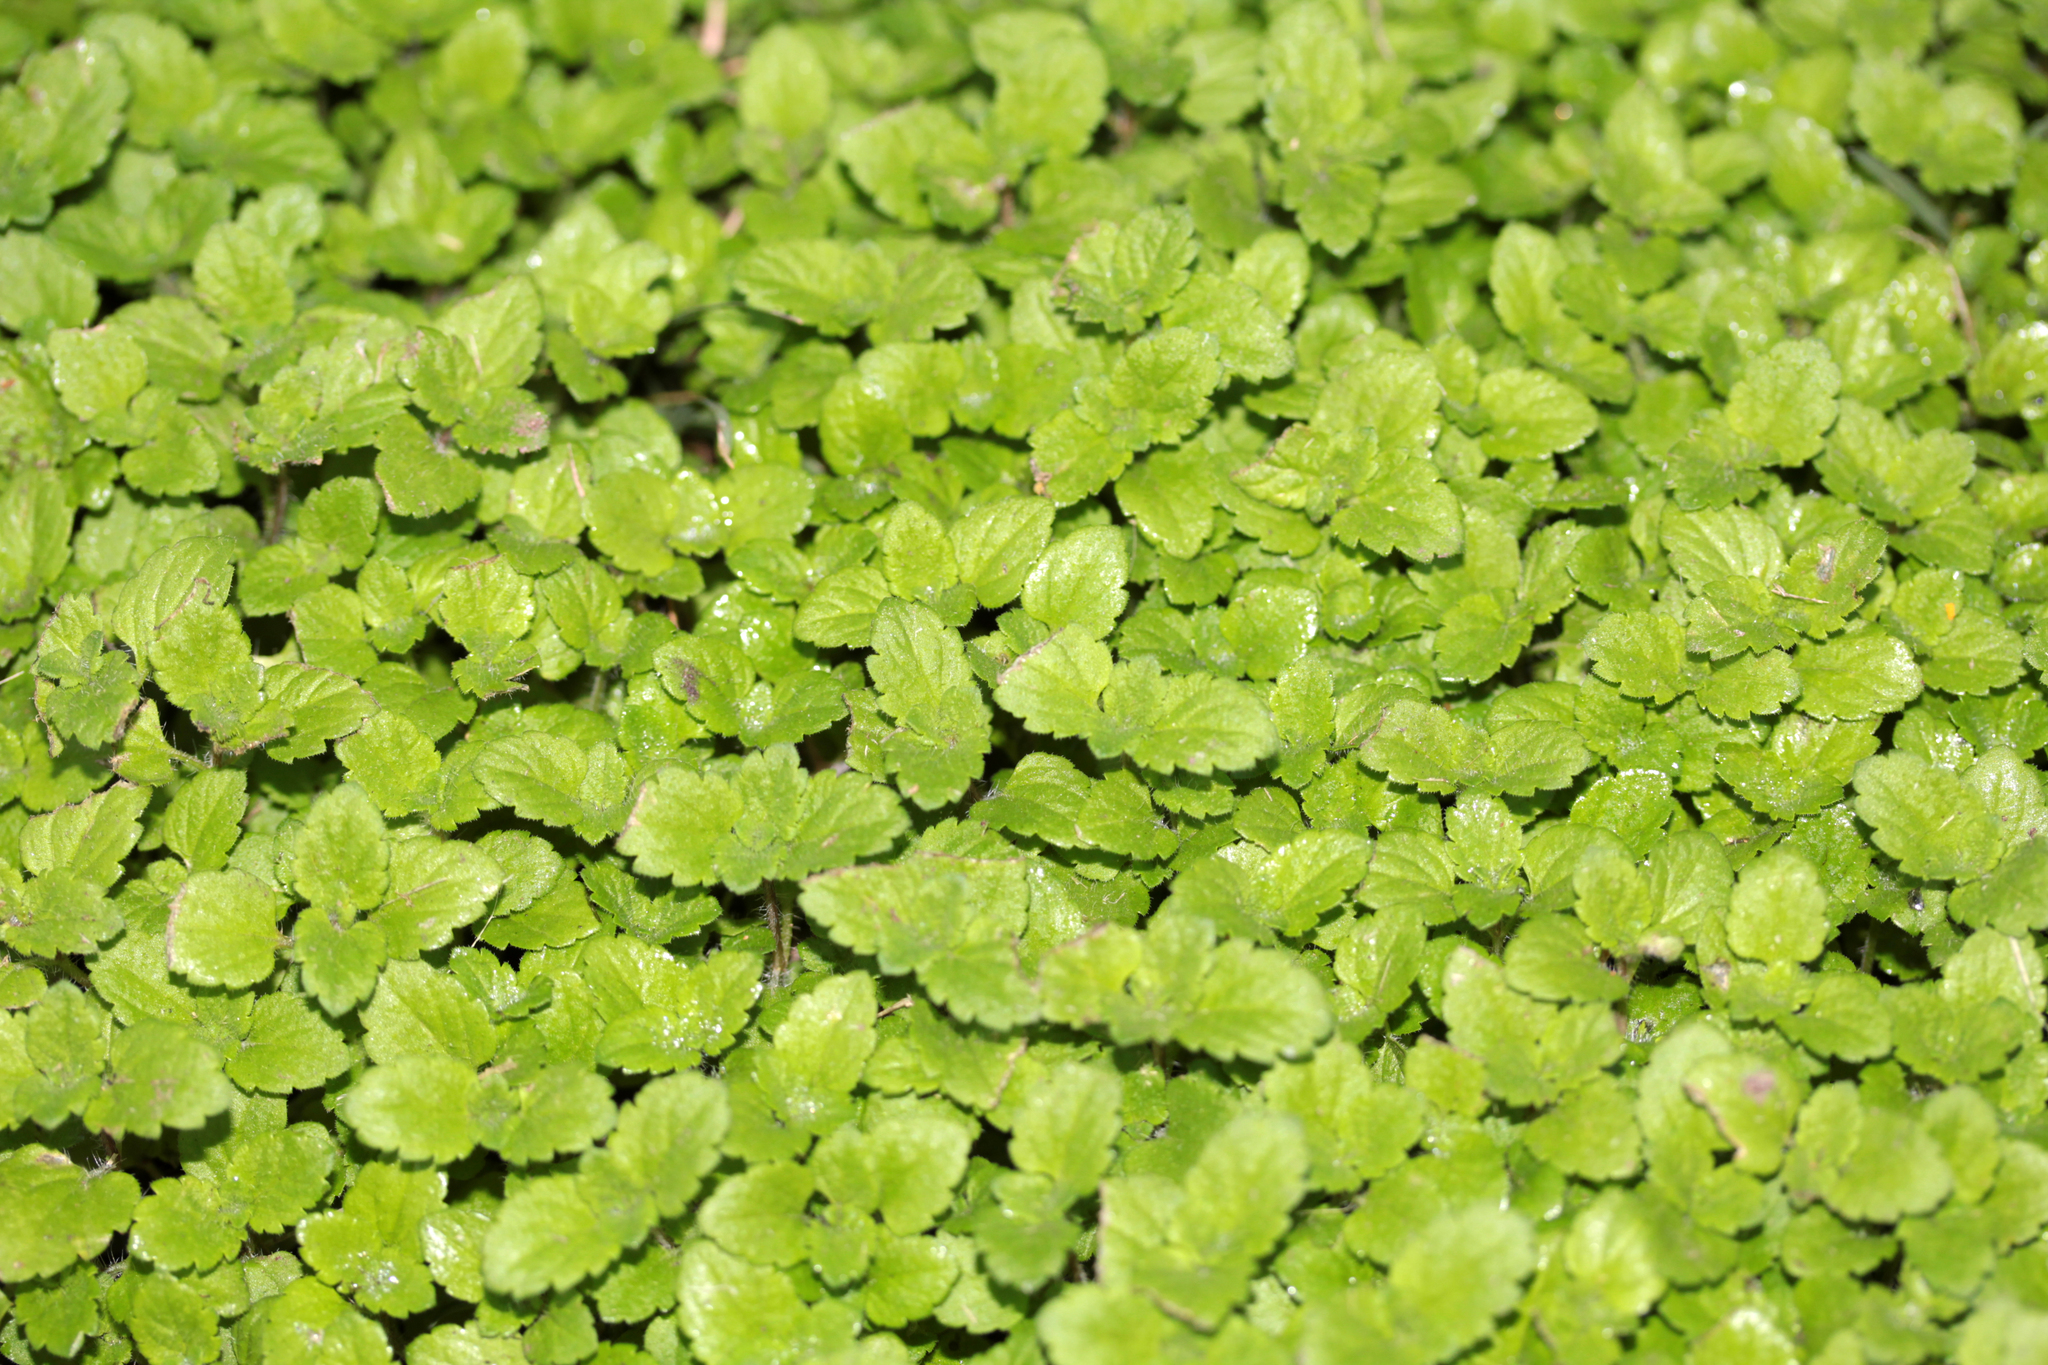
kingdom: Plantae
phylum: Tracheophyta
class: Magnoliopsida
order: Lamiales
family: Plantaginaceae
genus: Veronica
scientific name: Veronica persica
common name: Common field-speedwell
